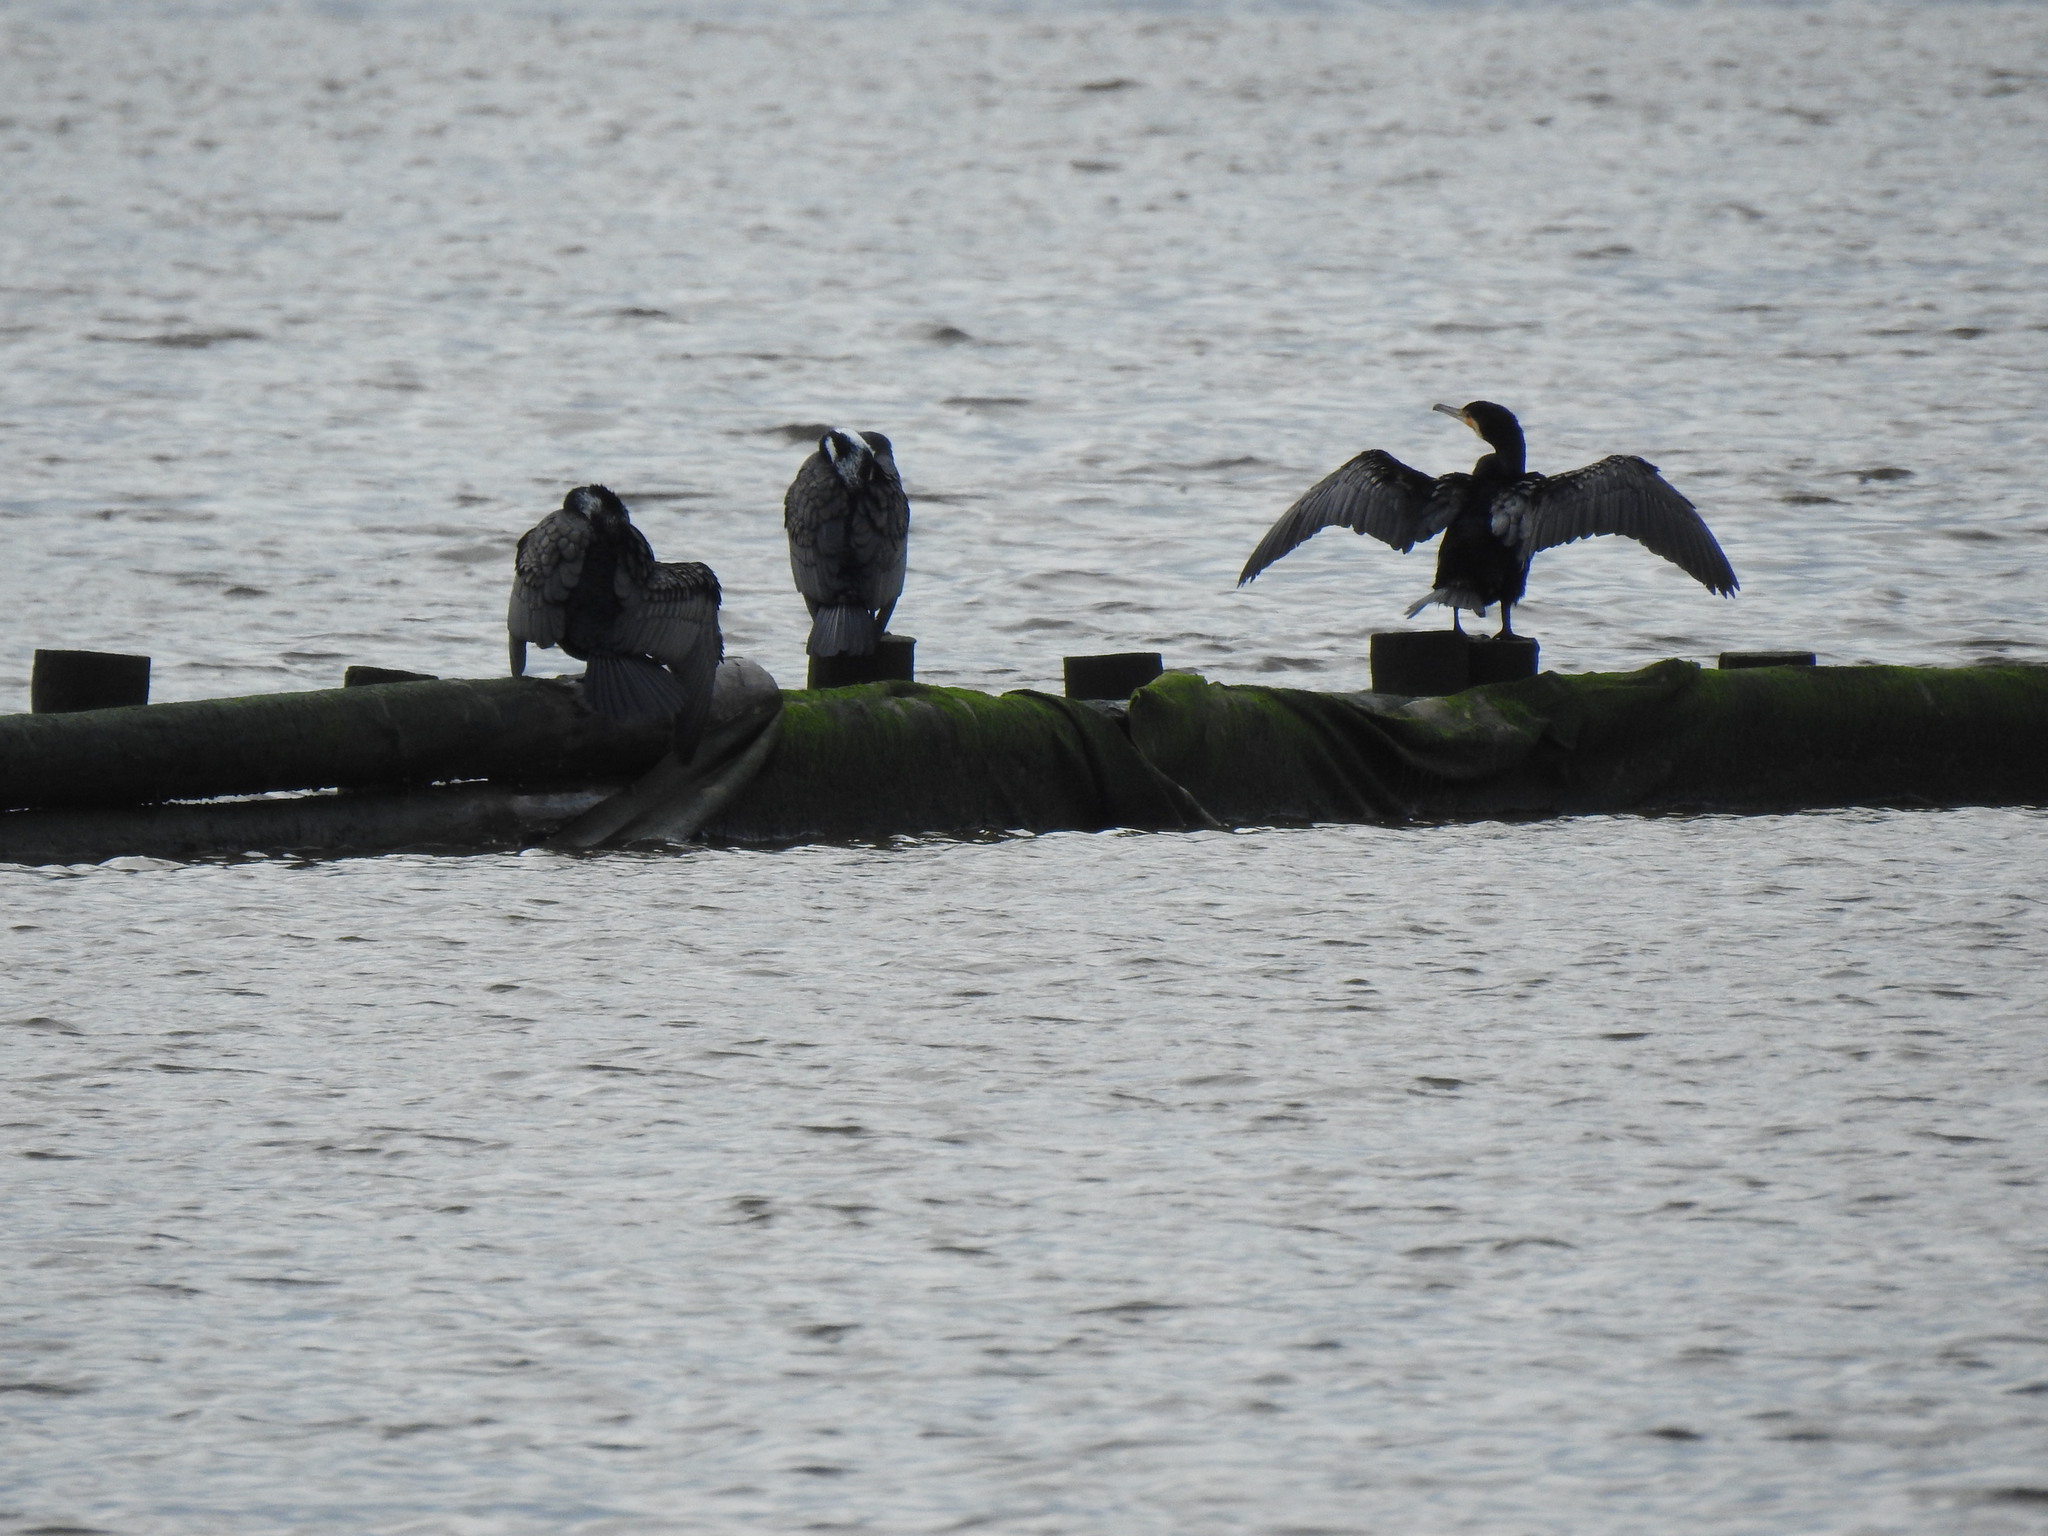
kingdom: Animalia
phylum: Chordata
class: Aves
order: Suliformes
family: Phalacrocoracidae
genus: Phalacrocorax
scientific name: Phalacrocorax carbo
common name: Great cormorant
